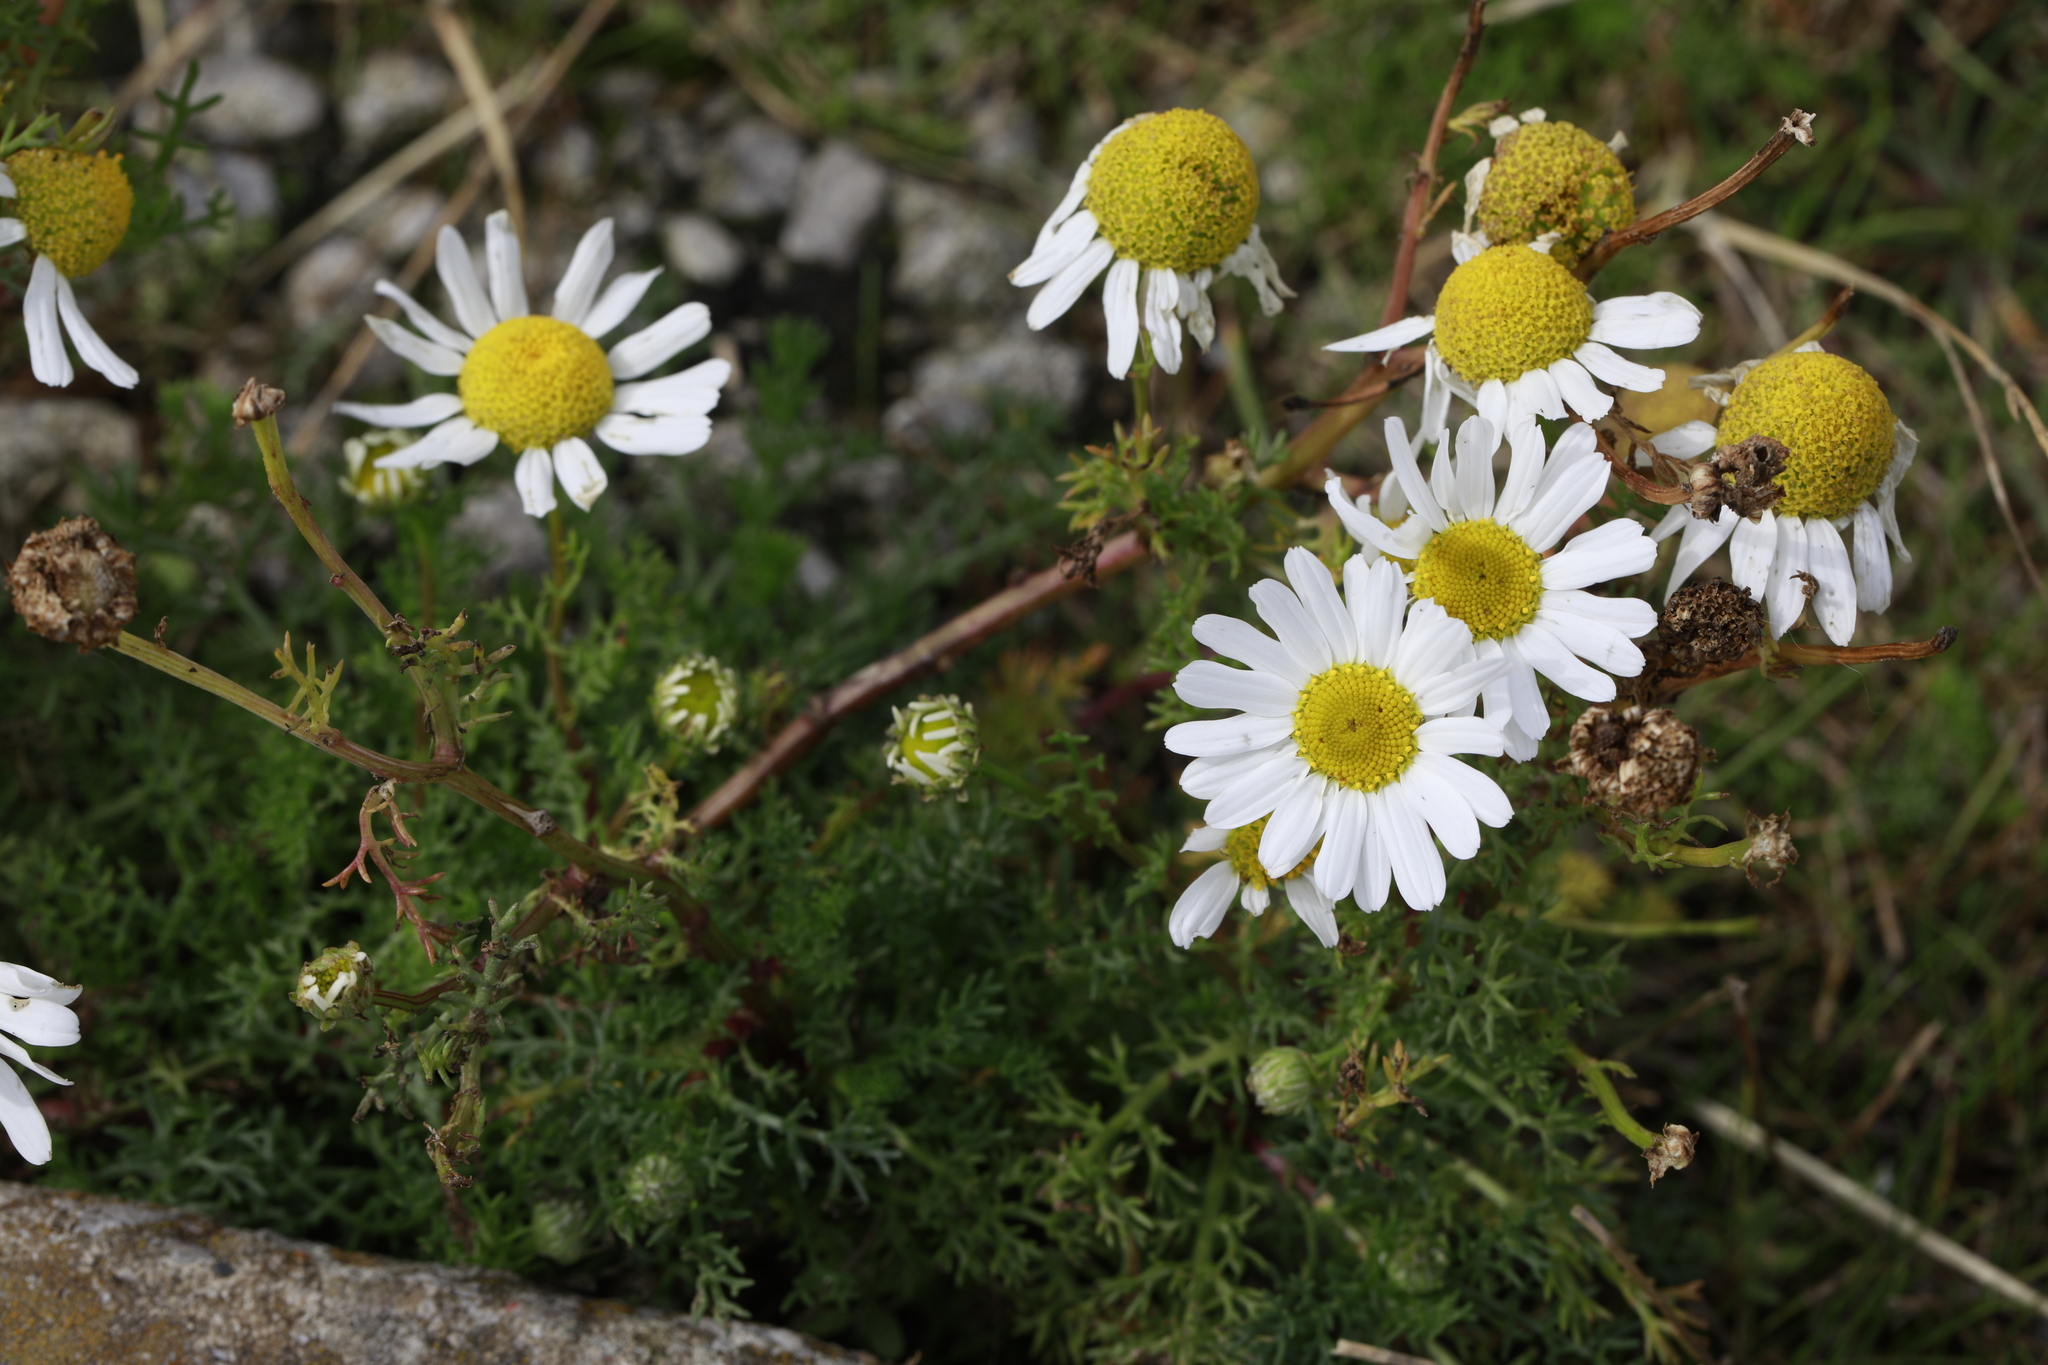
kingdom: Plantae
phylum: Tracheophyta
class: Magnoliopsida
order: Asterales
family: Asteraceae
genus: Tripleurospermum
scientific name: Tripleurospermum maritimum
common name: Sea mayweed
